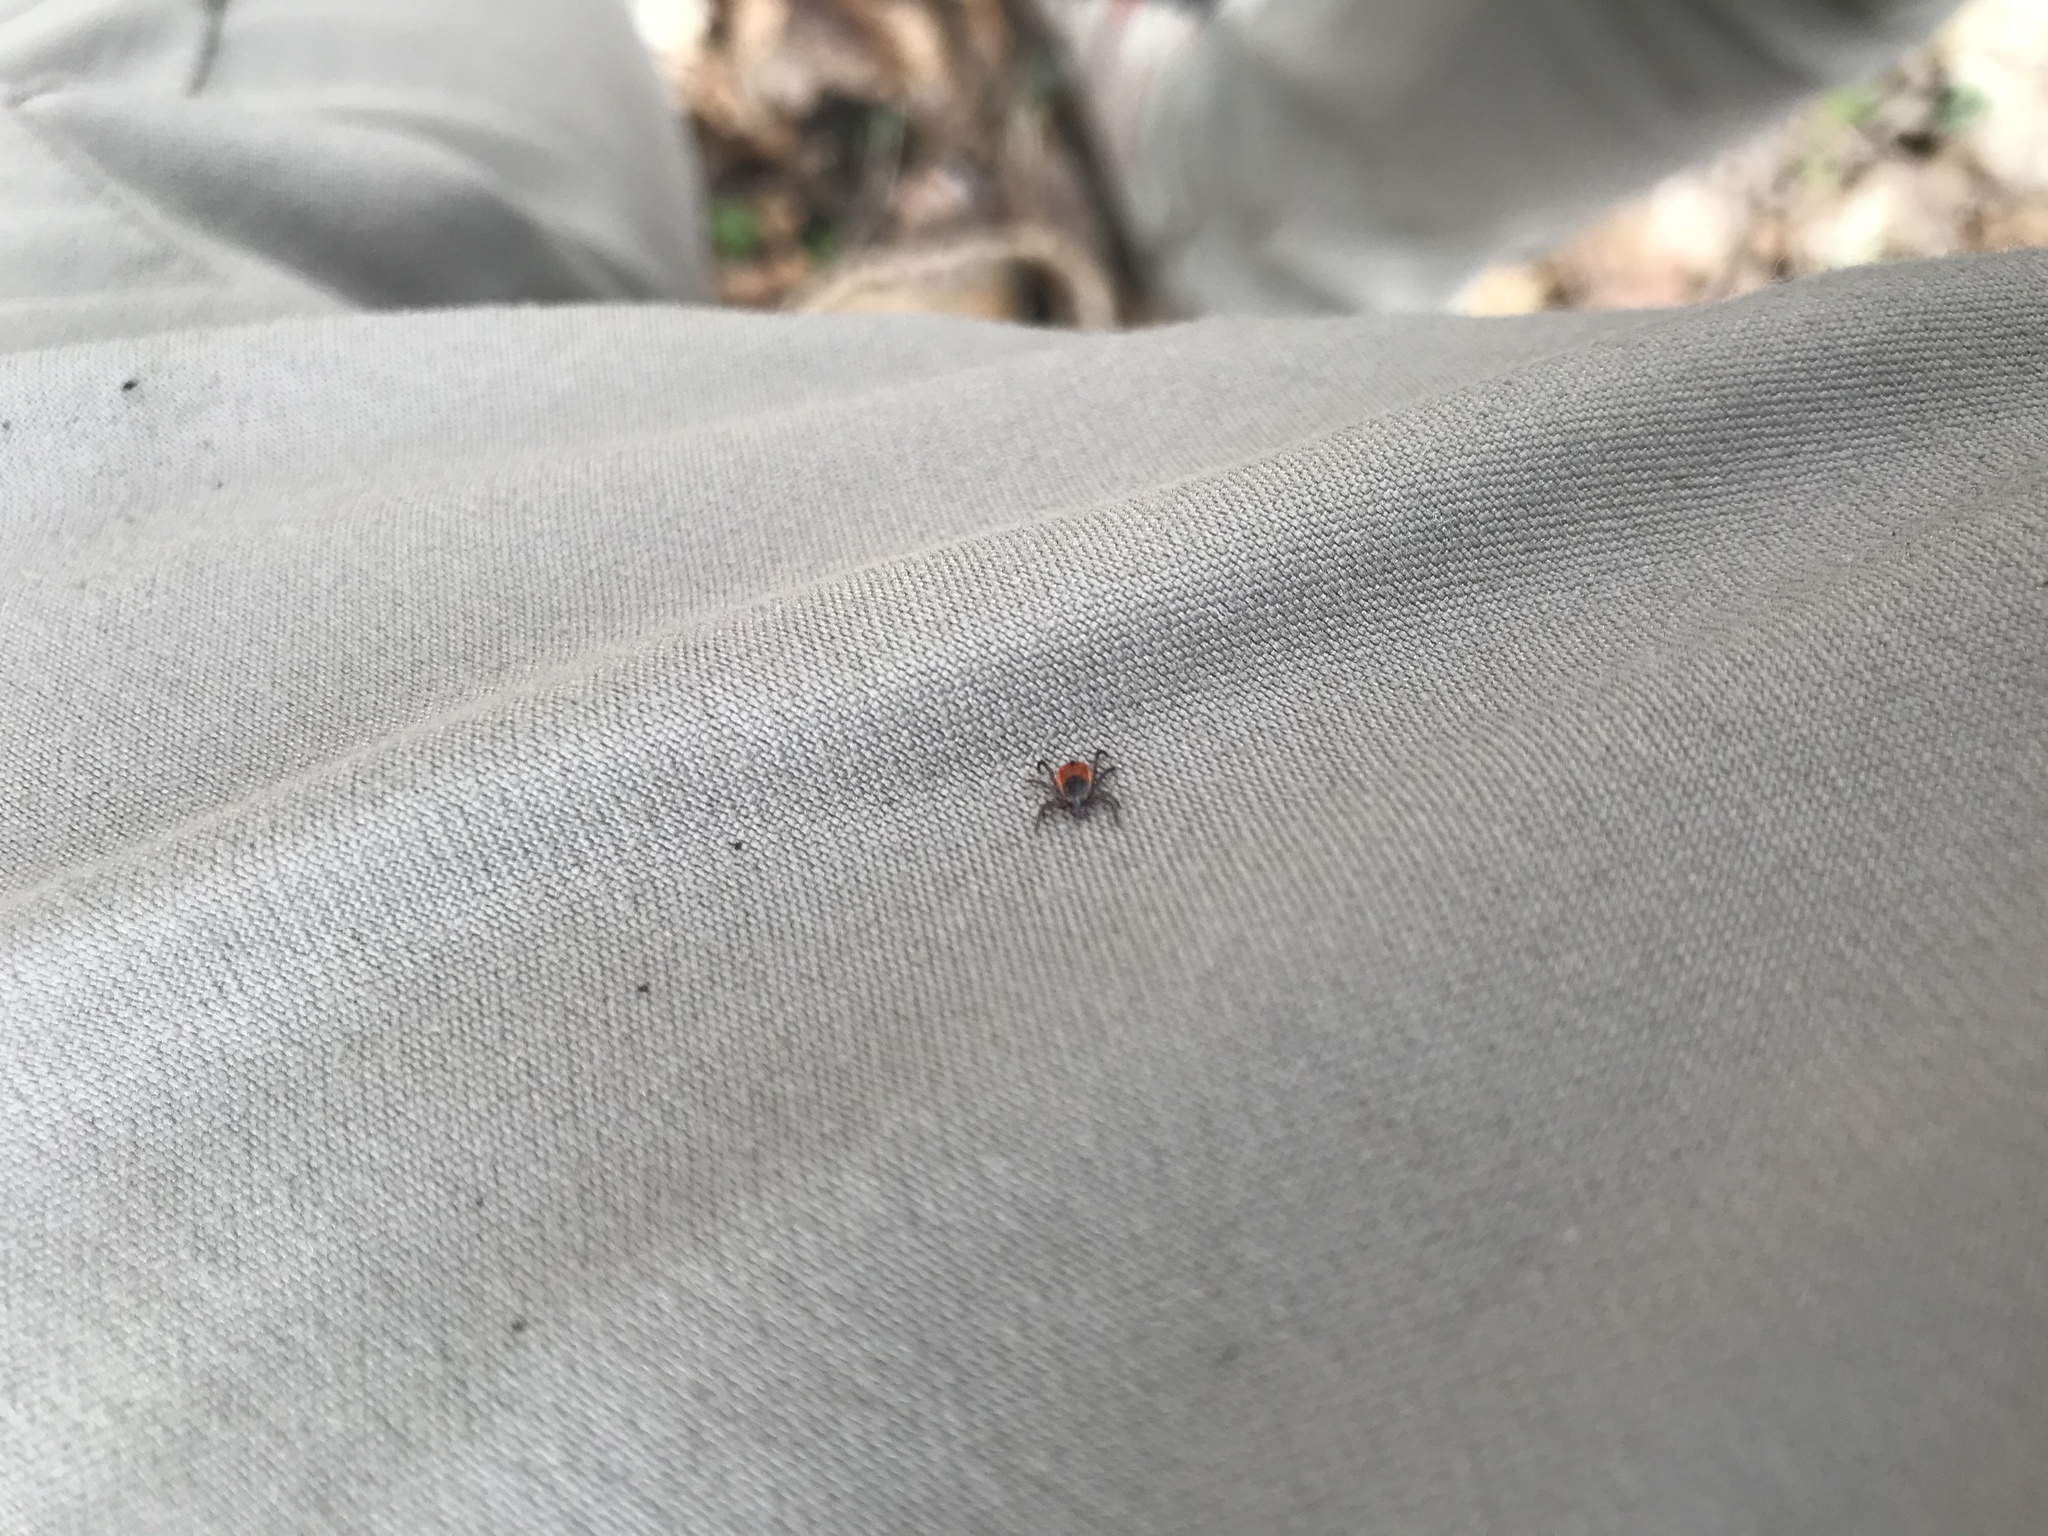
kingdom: Animalia
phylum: Arthropoda
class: Arachnida
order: Ixodida
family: Ixodidae
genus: Ixodes
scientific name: Ixodes scapularis
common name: Black legged tick
